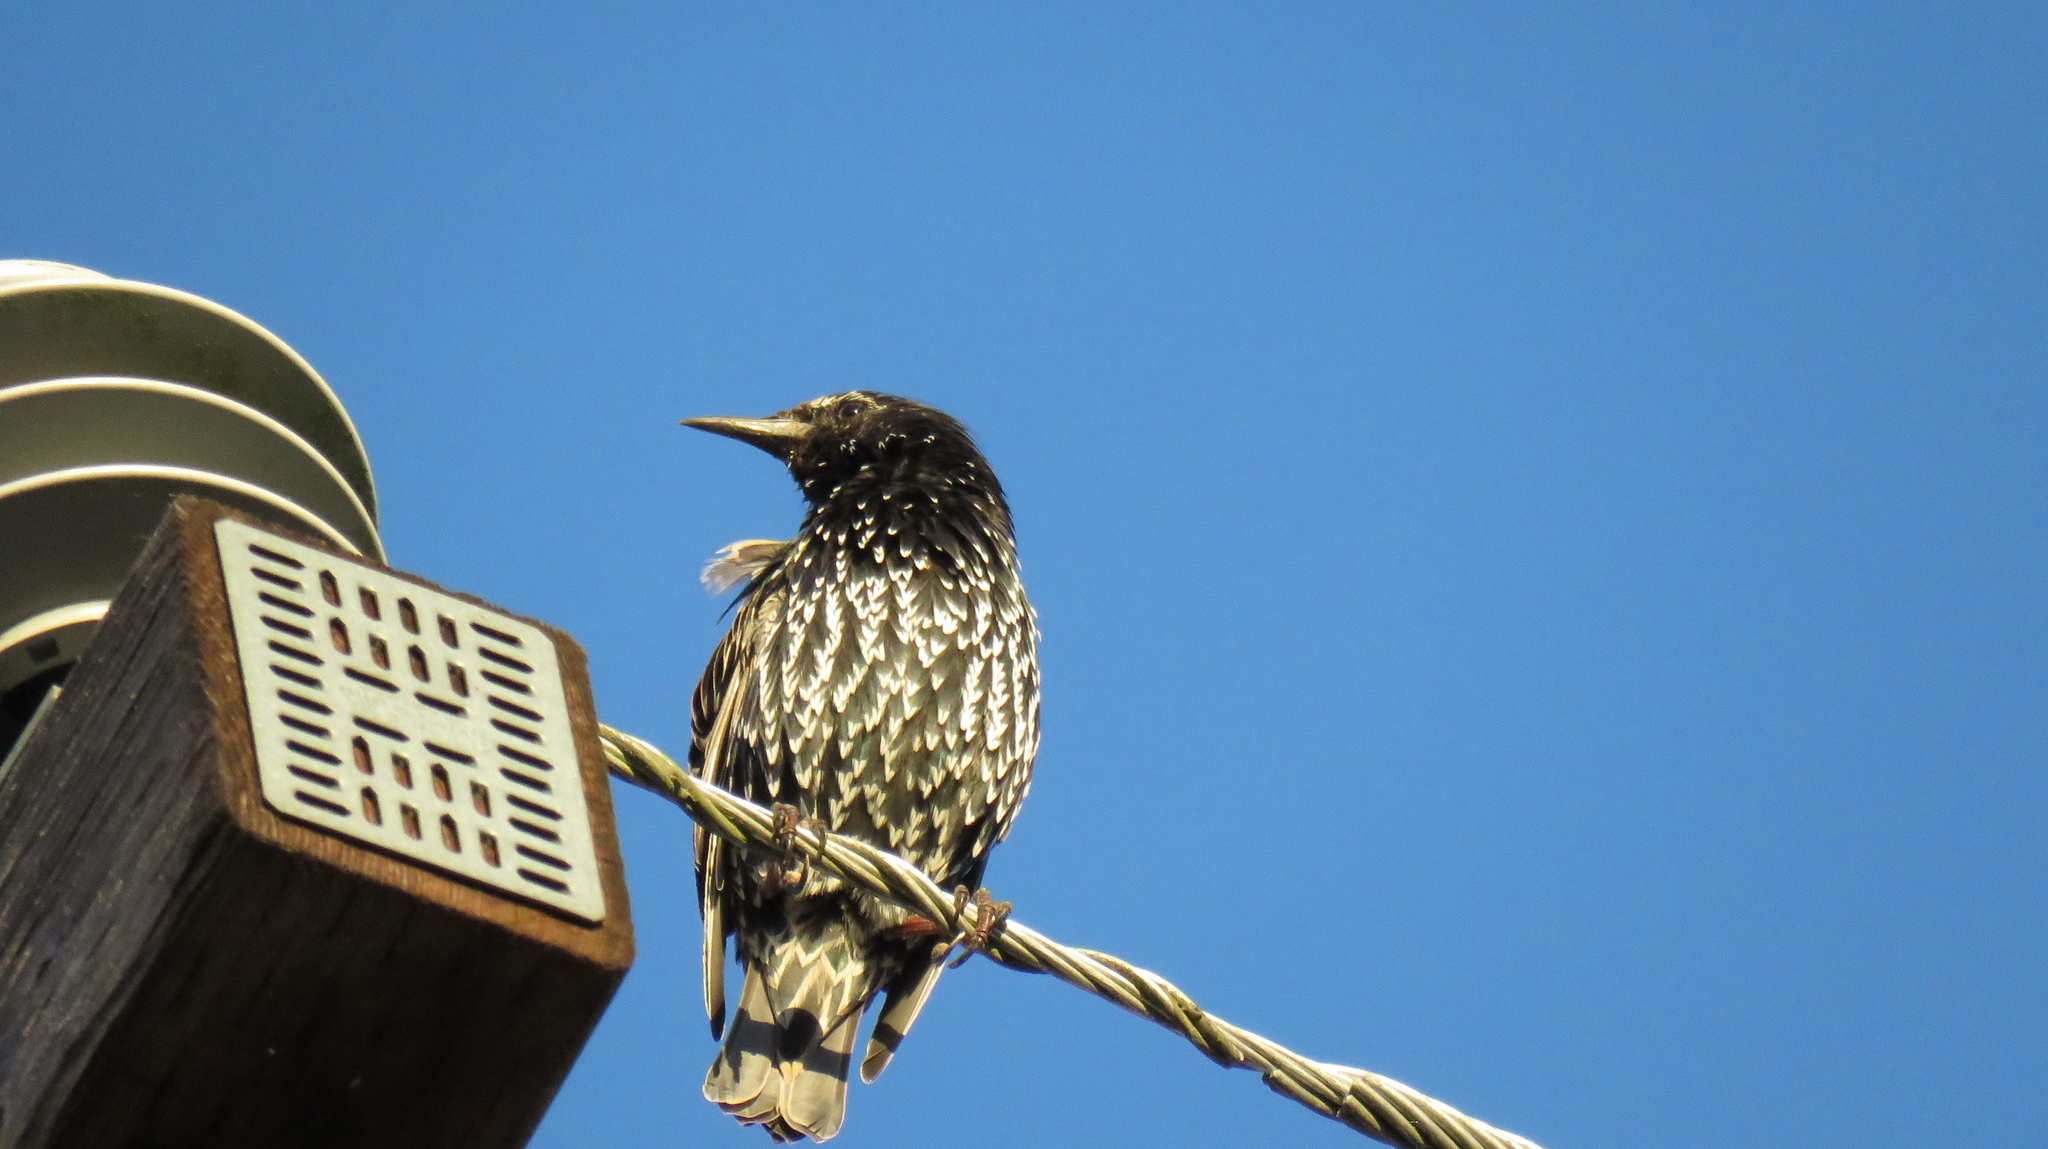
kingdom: Animalia
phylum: Chordata
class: Aves
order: Passeriformes
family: Sturnidae
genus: Sturnus
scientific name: Sturnus vulgaris
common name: Common starling
